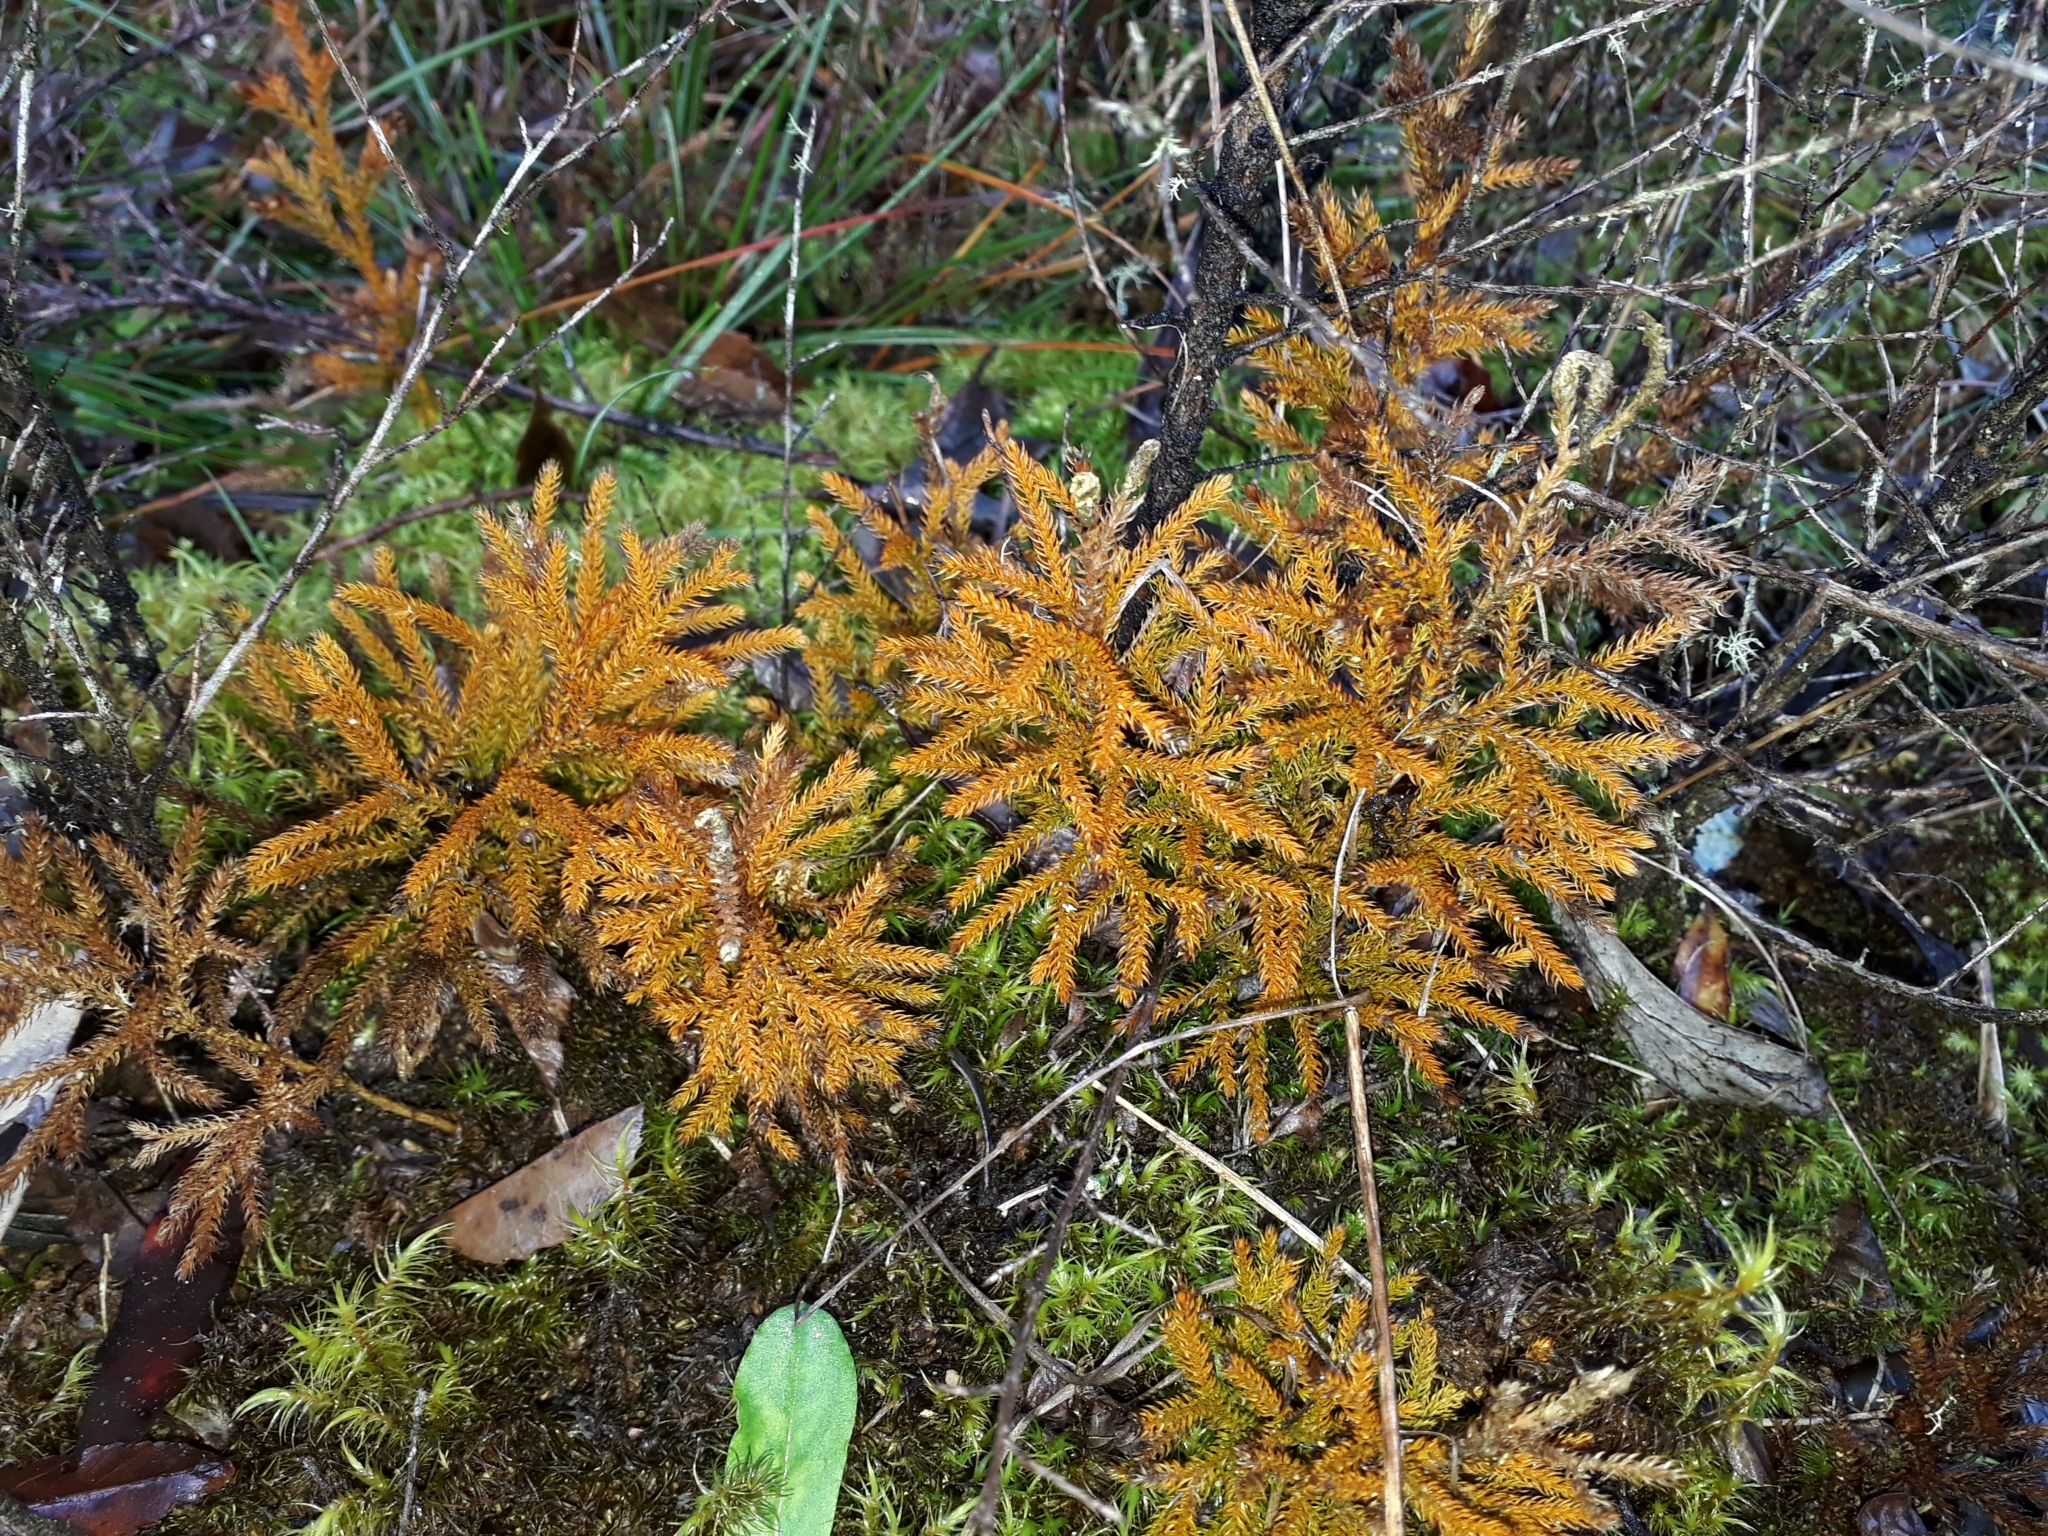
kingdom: Plantae
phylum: Tracheophyta
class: Lycopodiopsida
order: Lycopodiales
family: Lycopodiaceae
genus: Austrolycopodium
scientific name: Austrolycopodium fastigiatum
